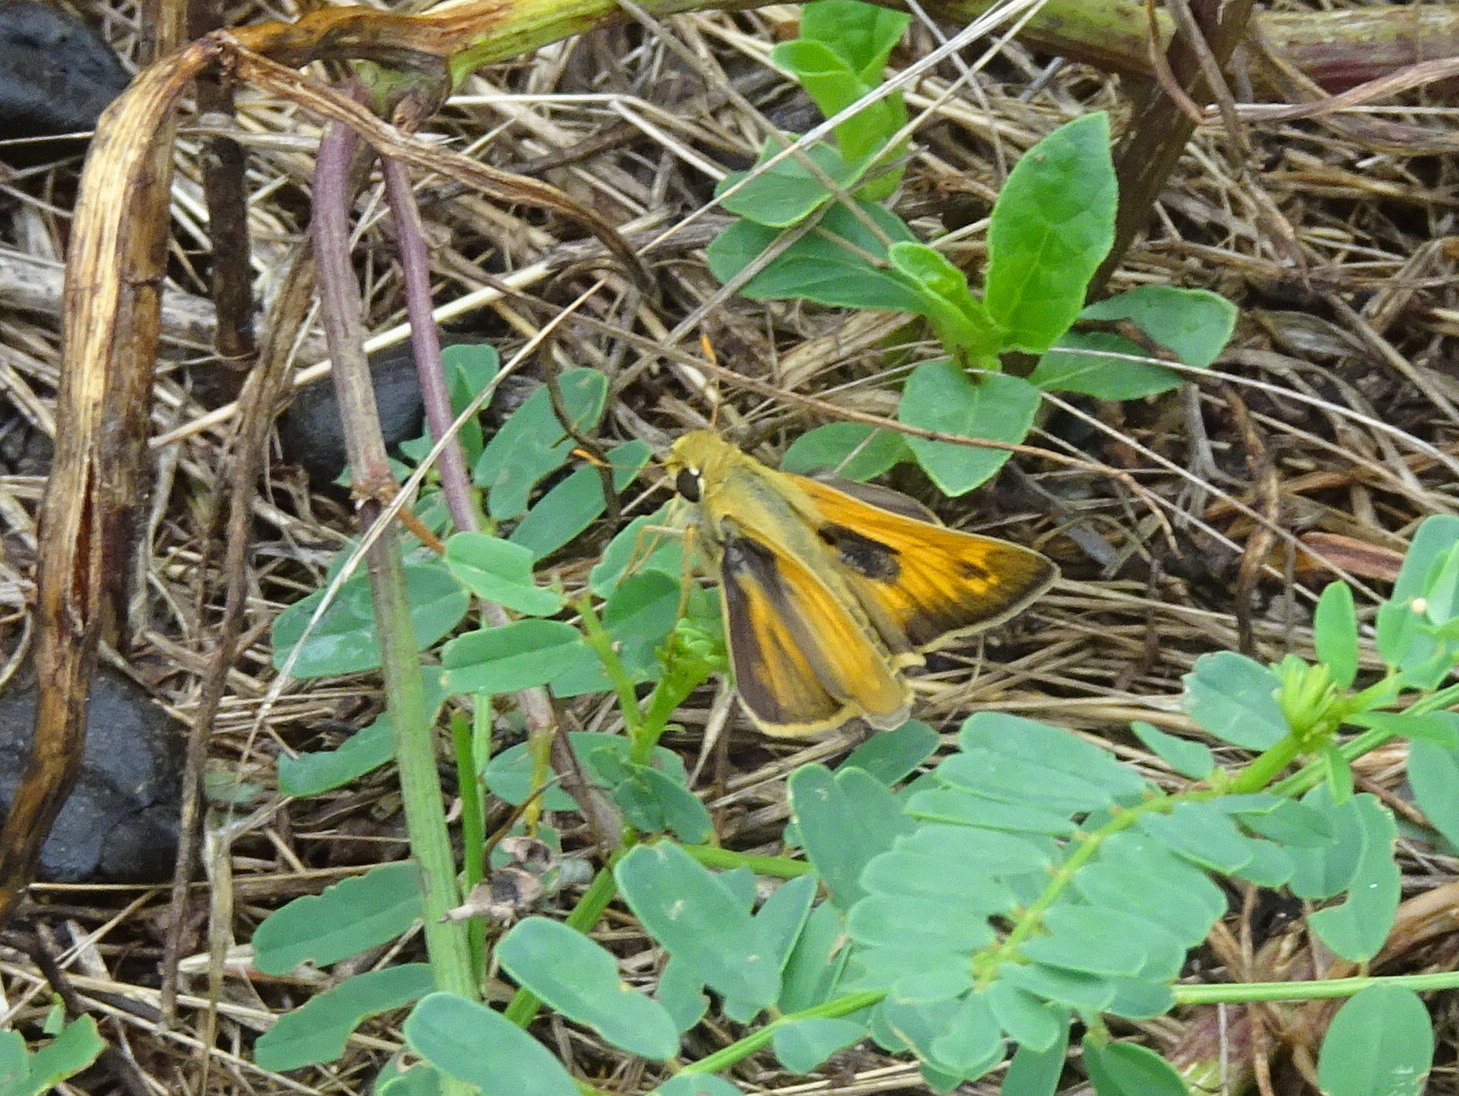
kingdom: Animalia
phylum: Arthropoda
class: Insecta
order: Lepidoptera
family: Hesperiidae
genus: Atalopedes
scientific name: Atalopedes
